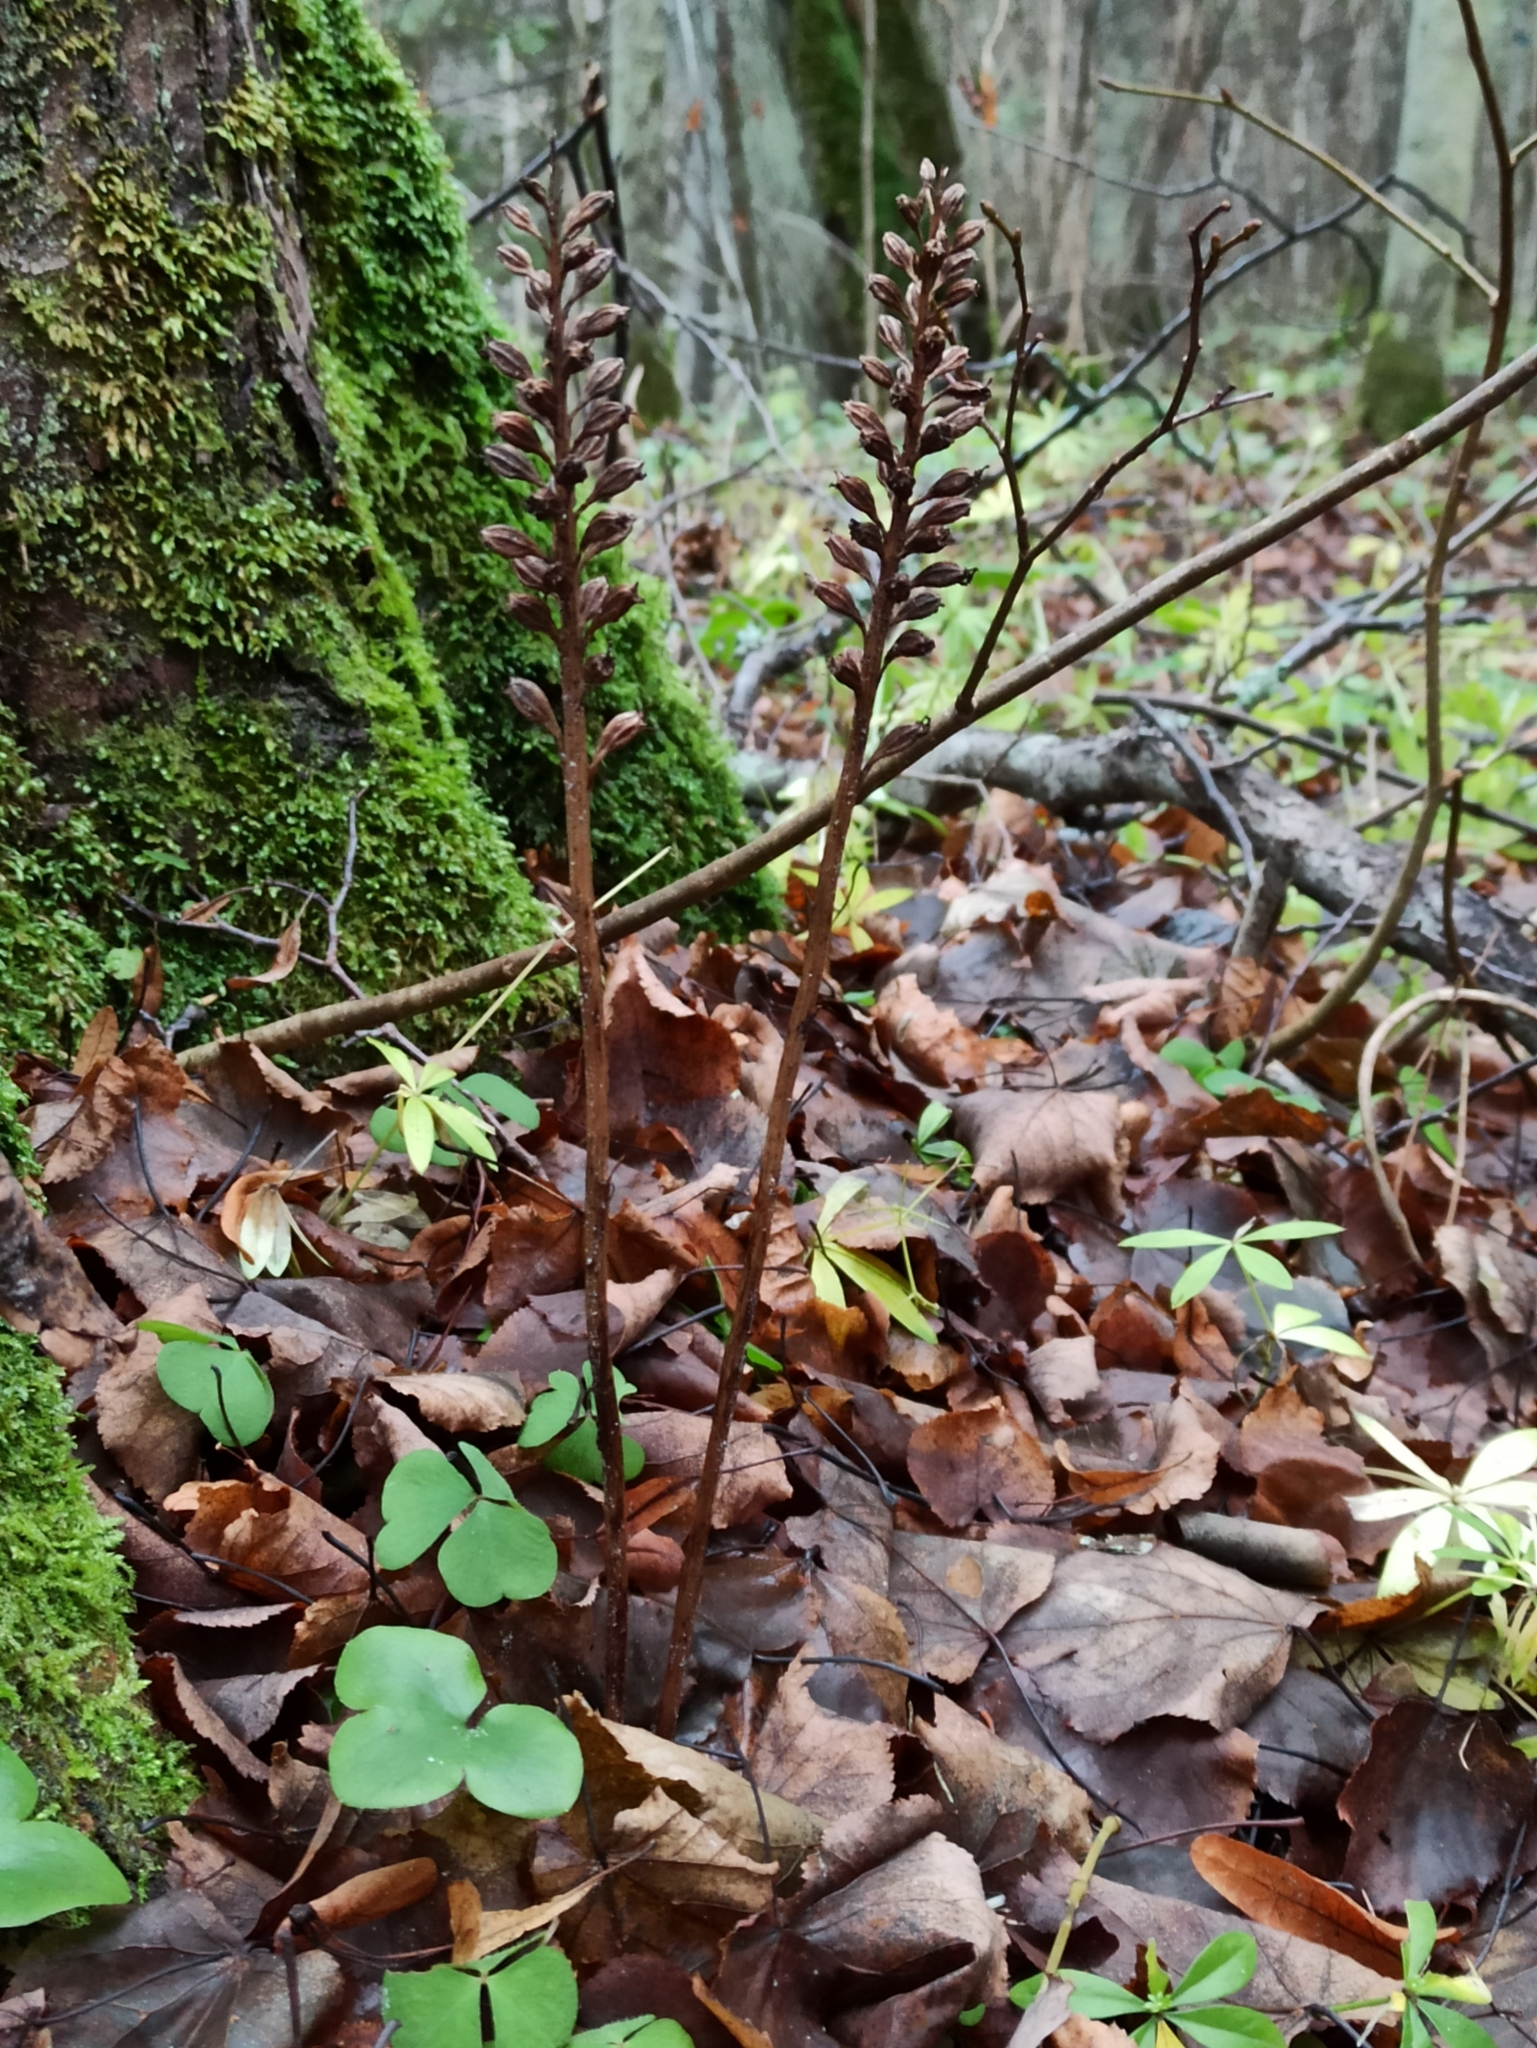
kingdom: Plantae
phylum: Tracheophyta
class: Liliopsida
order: Asparagales
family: Orchidaceae
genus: Neottia
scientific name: Neottia nidus-avis
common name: Bird's-nest orchid
